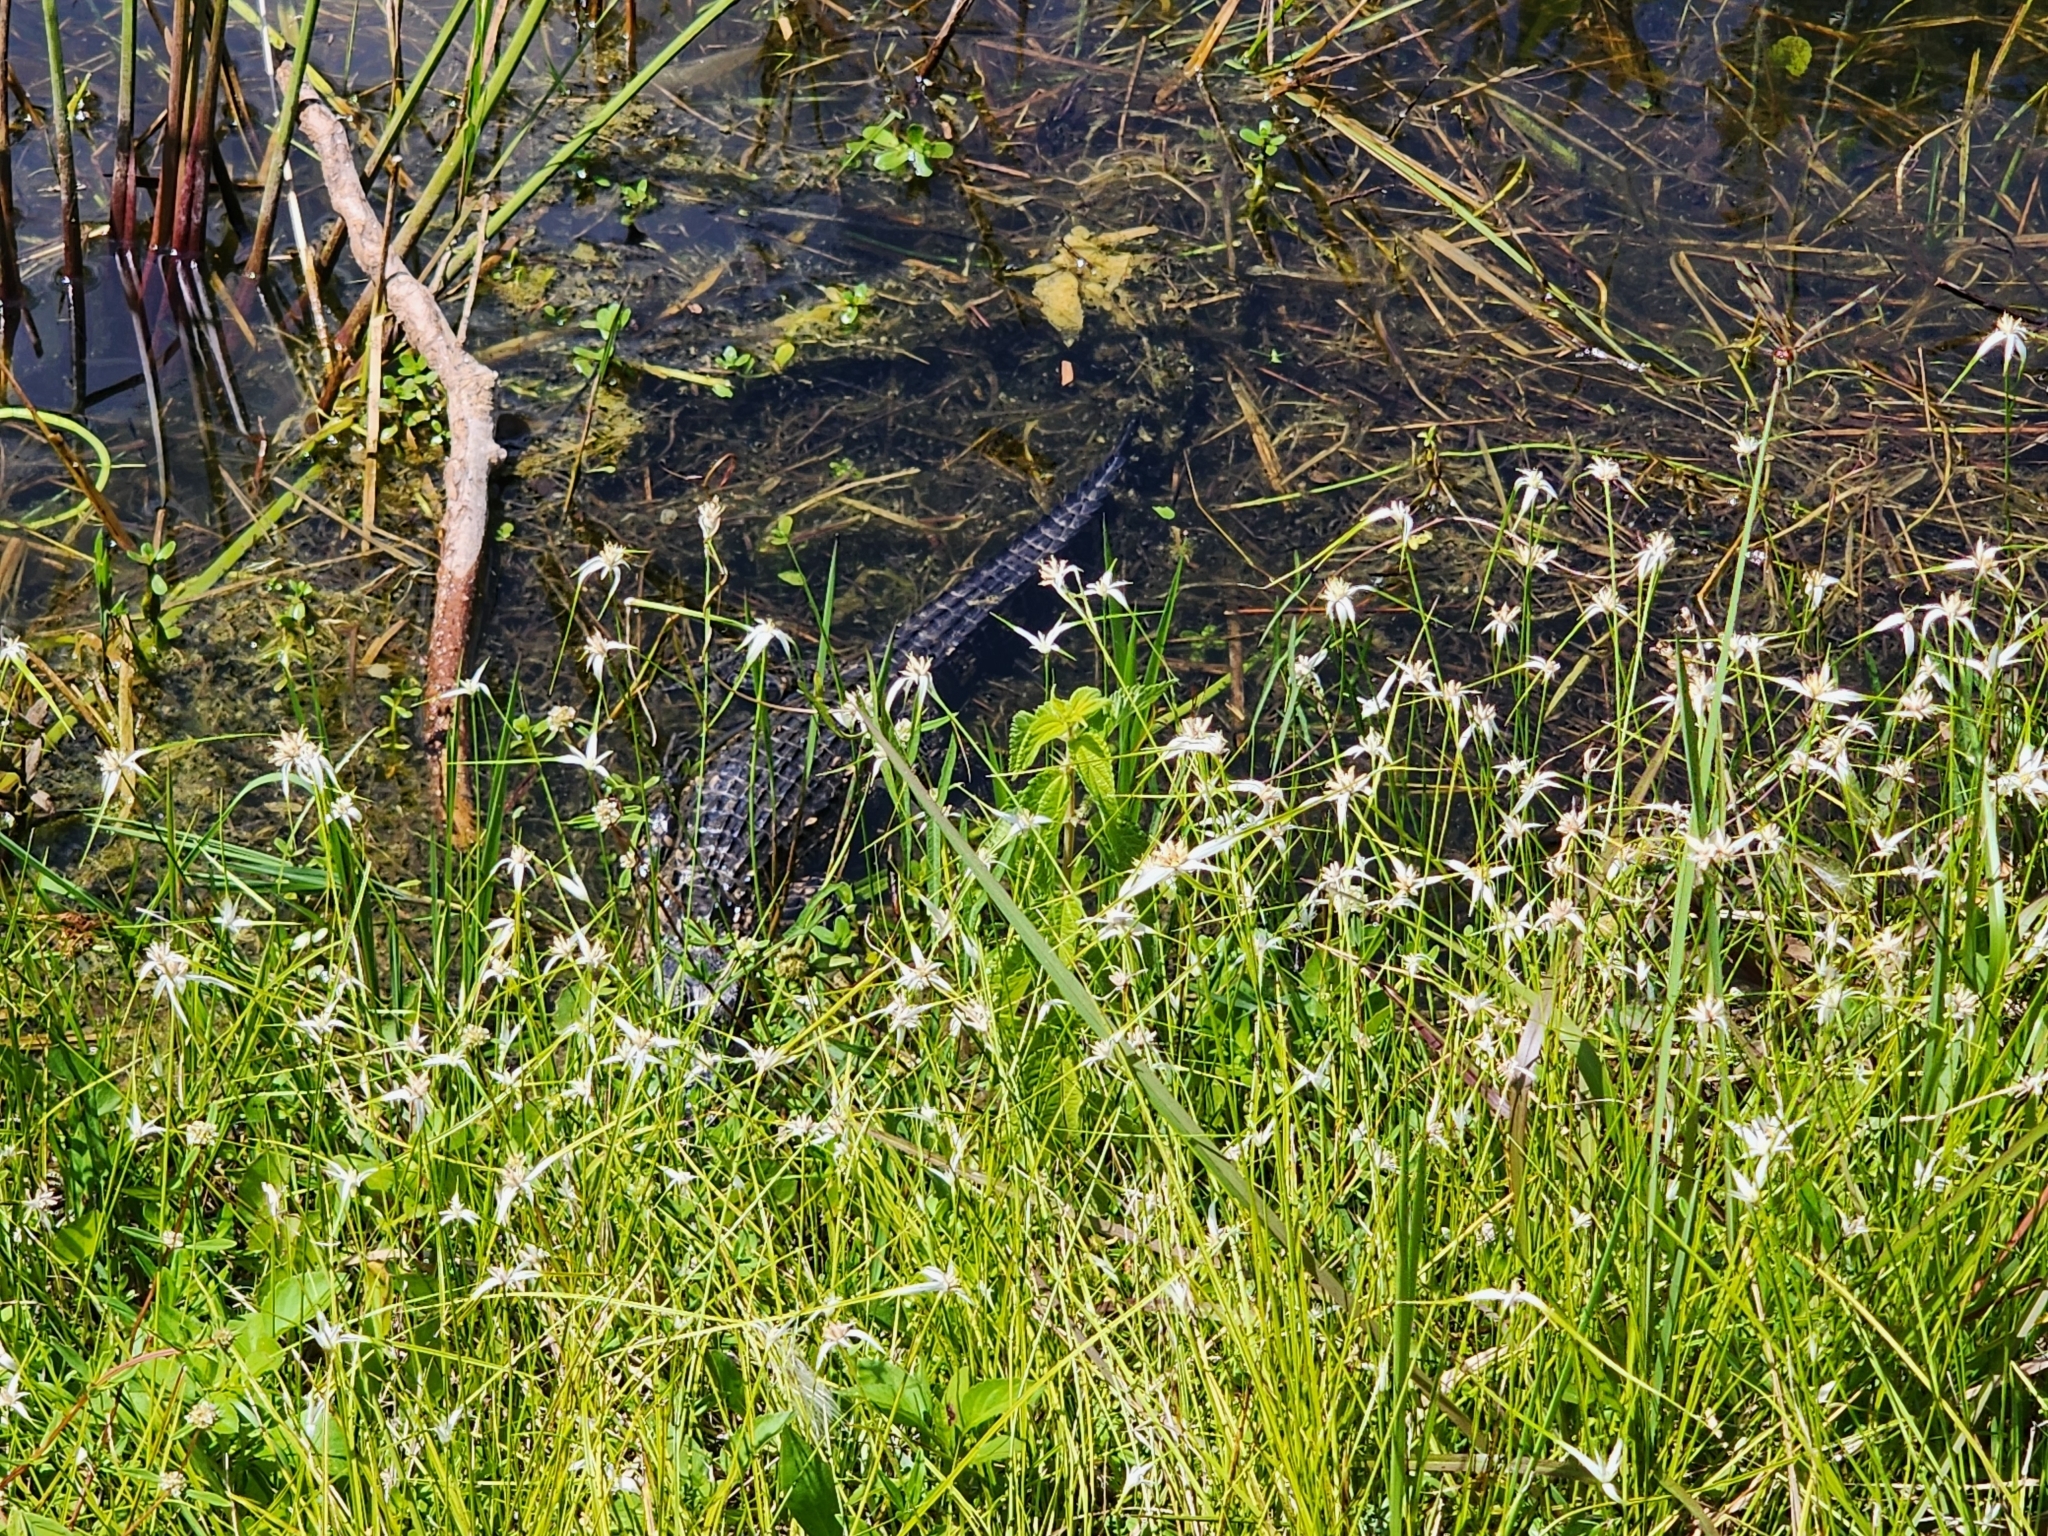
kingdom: Animalia
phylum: Chordata
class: Crocodylia
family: Alligatoridae
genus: Alligator
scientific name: Alligator mississippiensis
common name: American alligator
